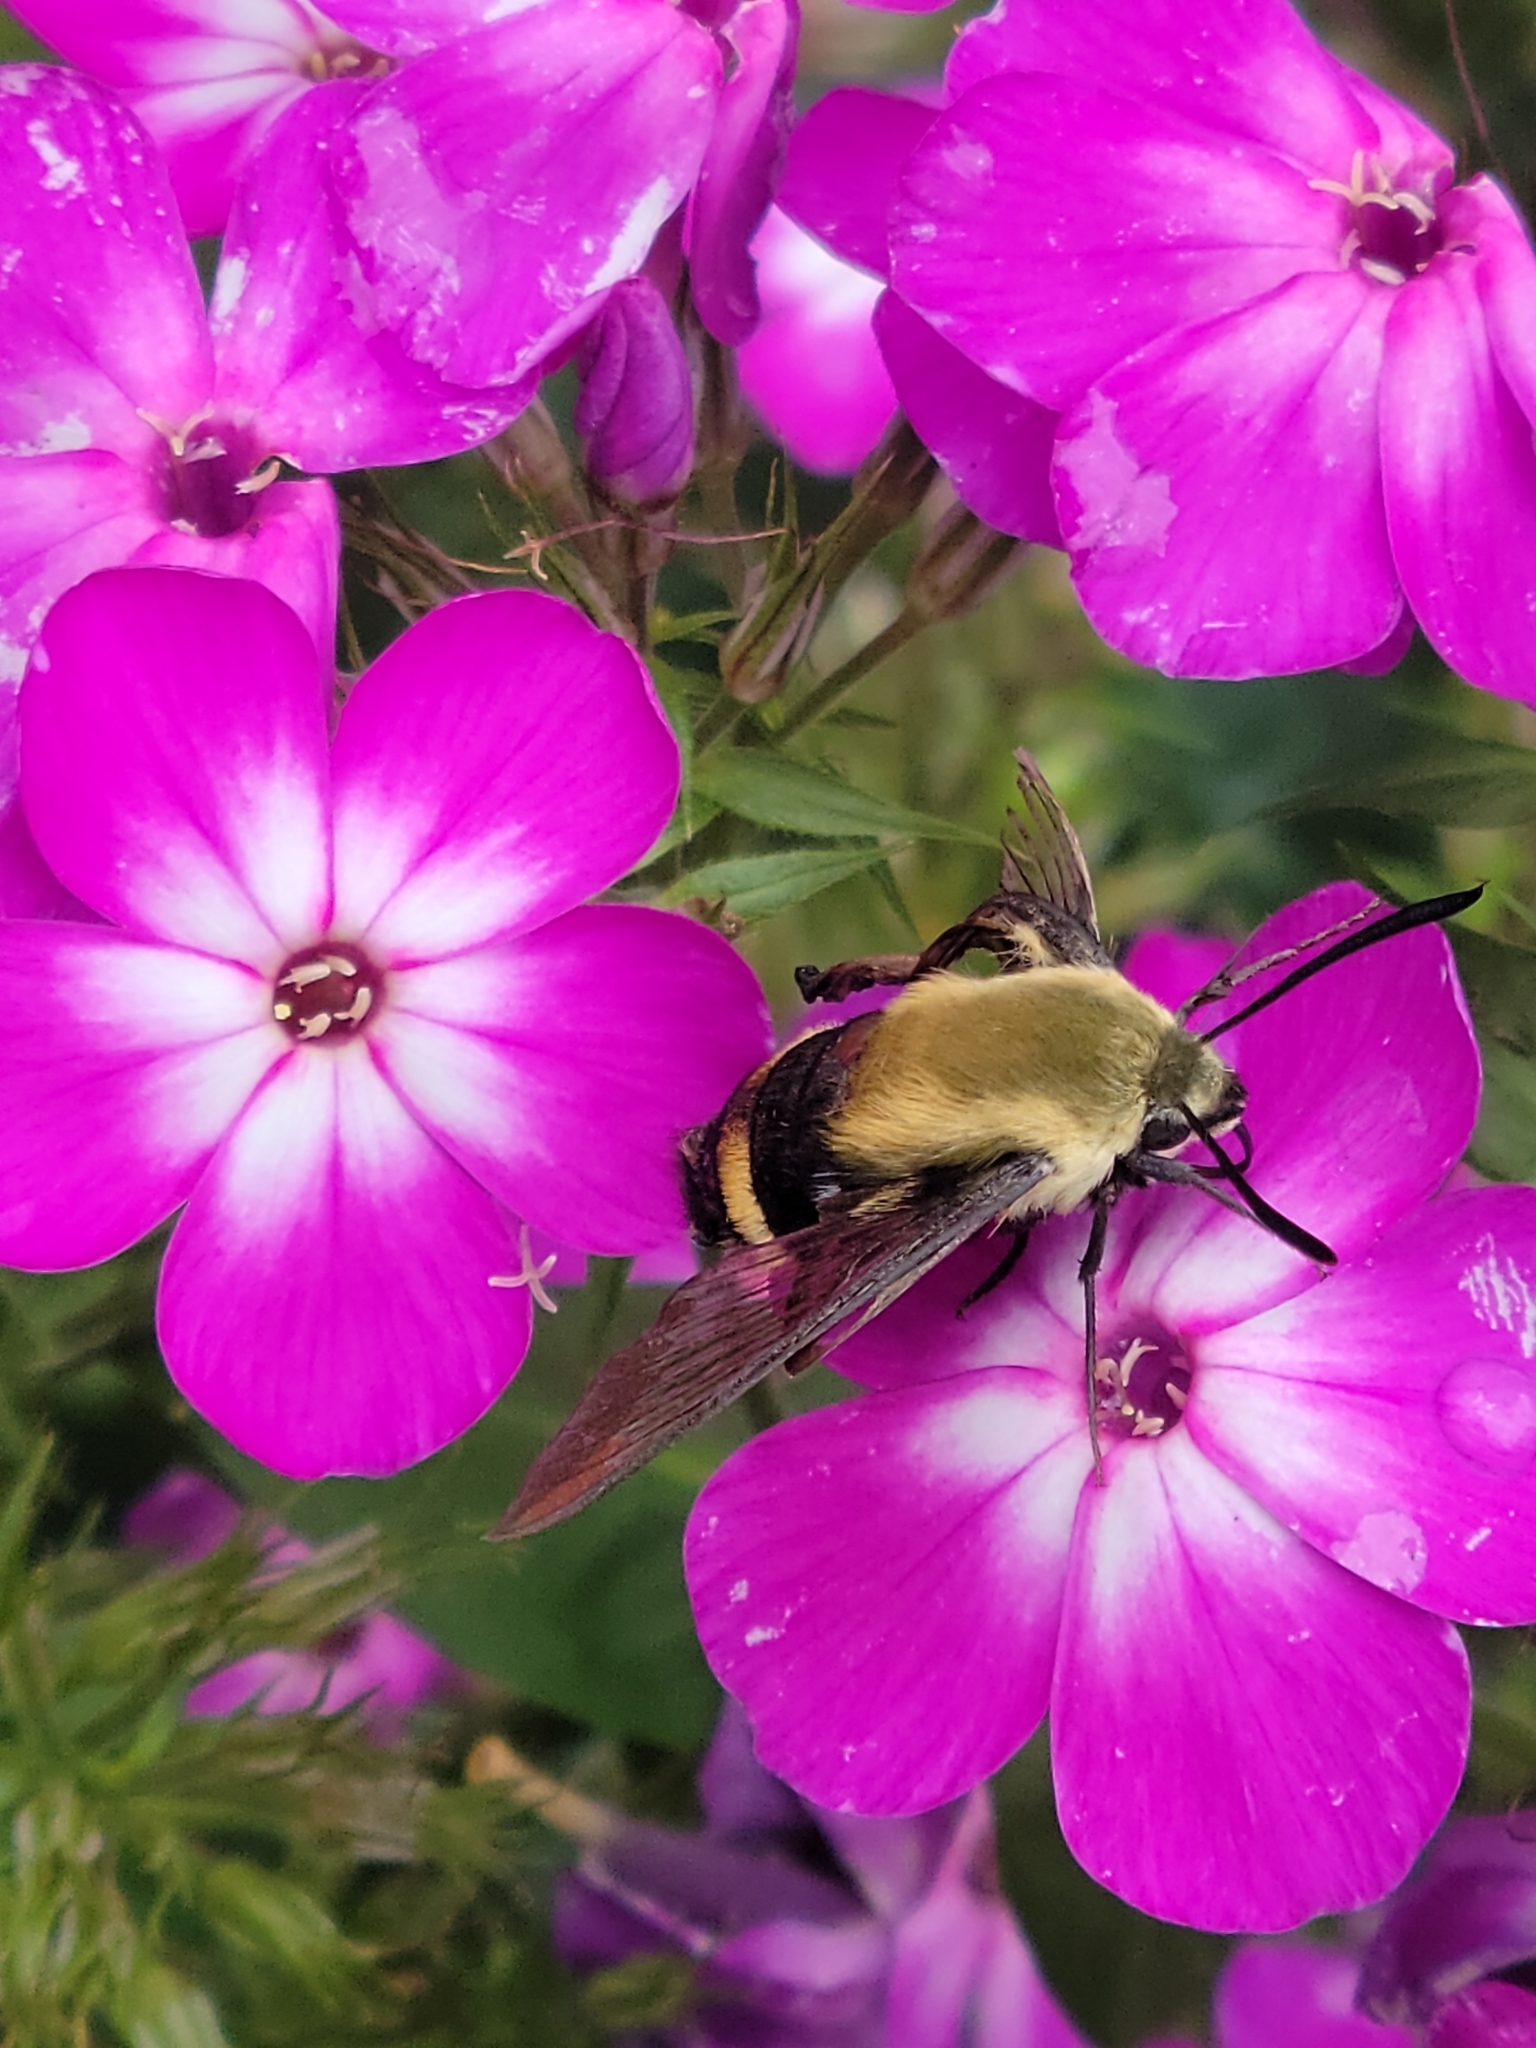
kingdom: Animalia
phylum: Arthropoda
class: Insecta
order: Lepidoptera
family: Sphingidae
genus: Hemaris
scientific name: Hemaris diffinis
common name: Bumblebee moth
